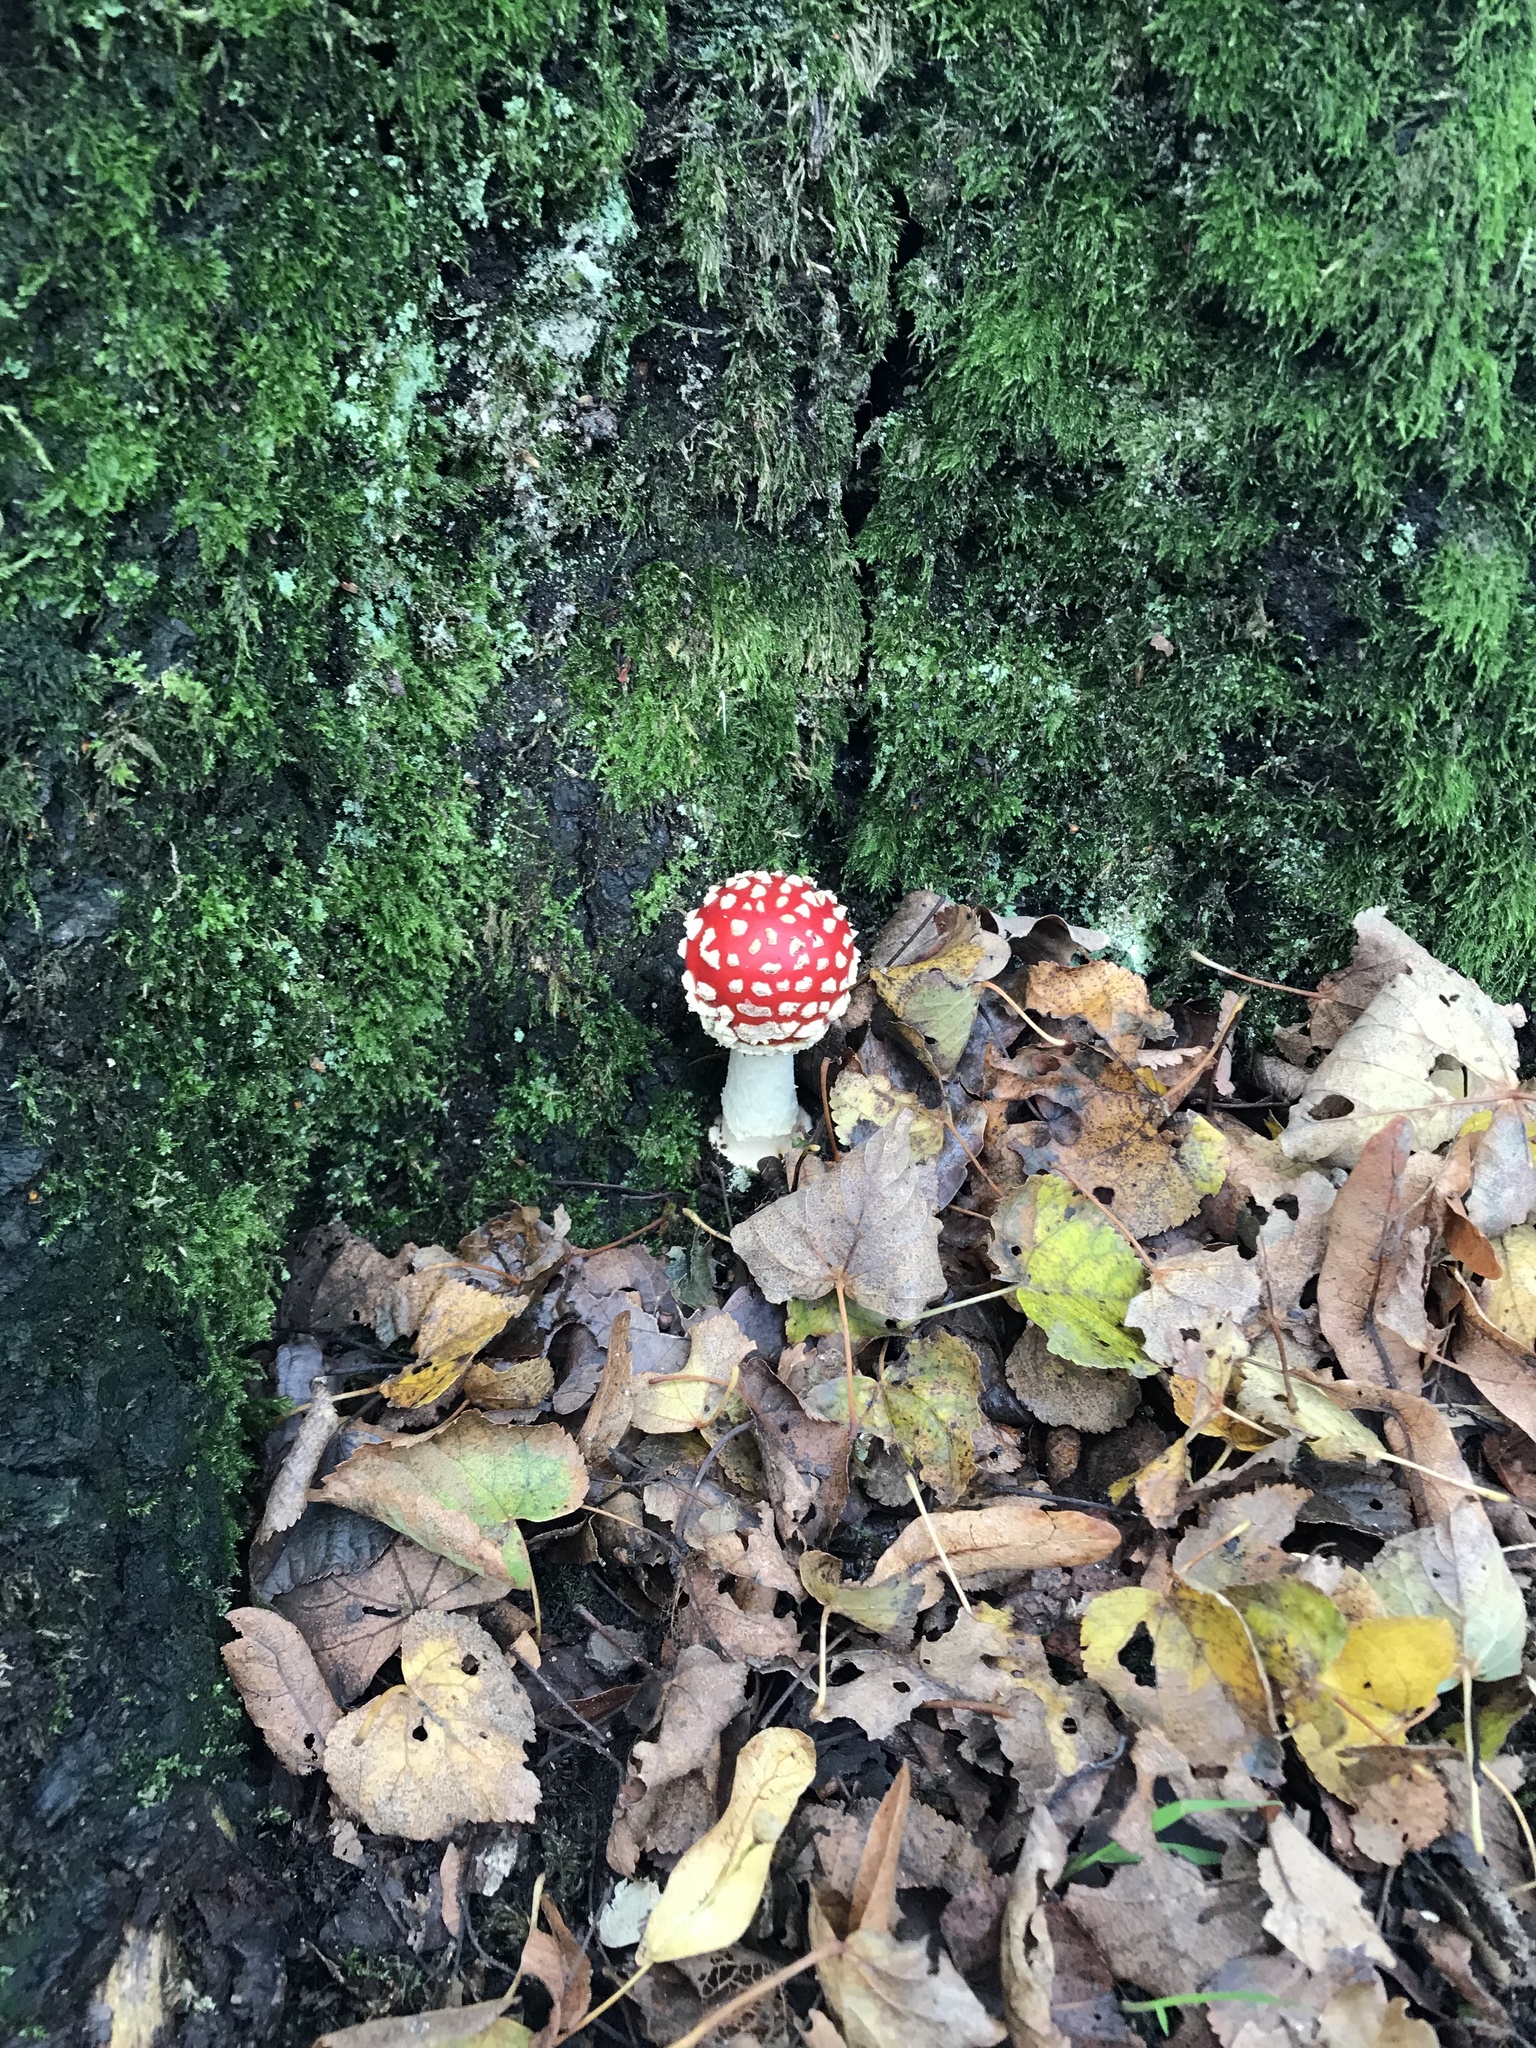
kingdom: Fungi
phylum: Basidiomycota
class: Agaricomycetes
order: Agaricales
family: Amanitaceae
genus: Amanita
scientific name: Amanita muscaria
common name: Fly agaric
